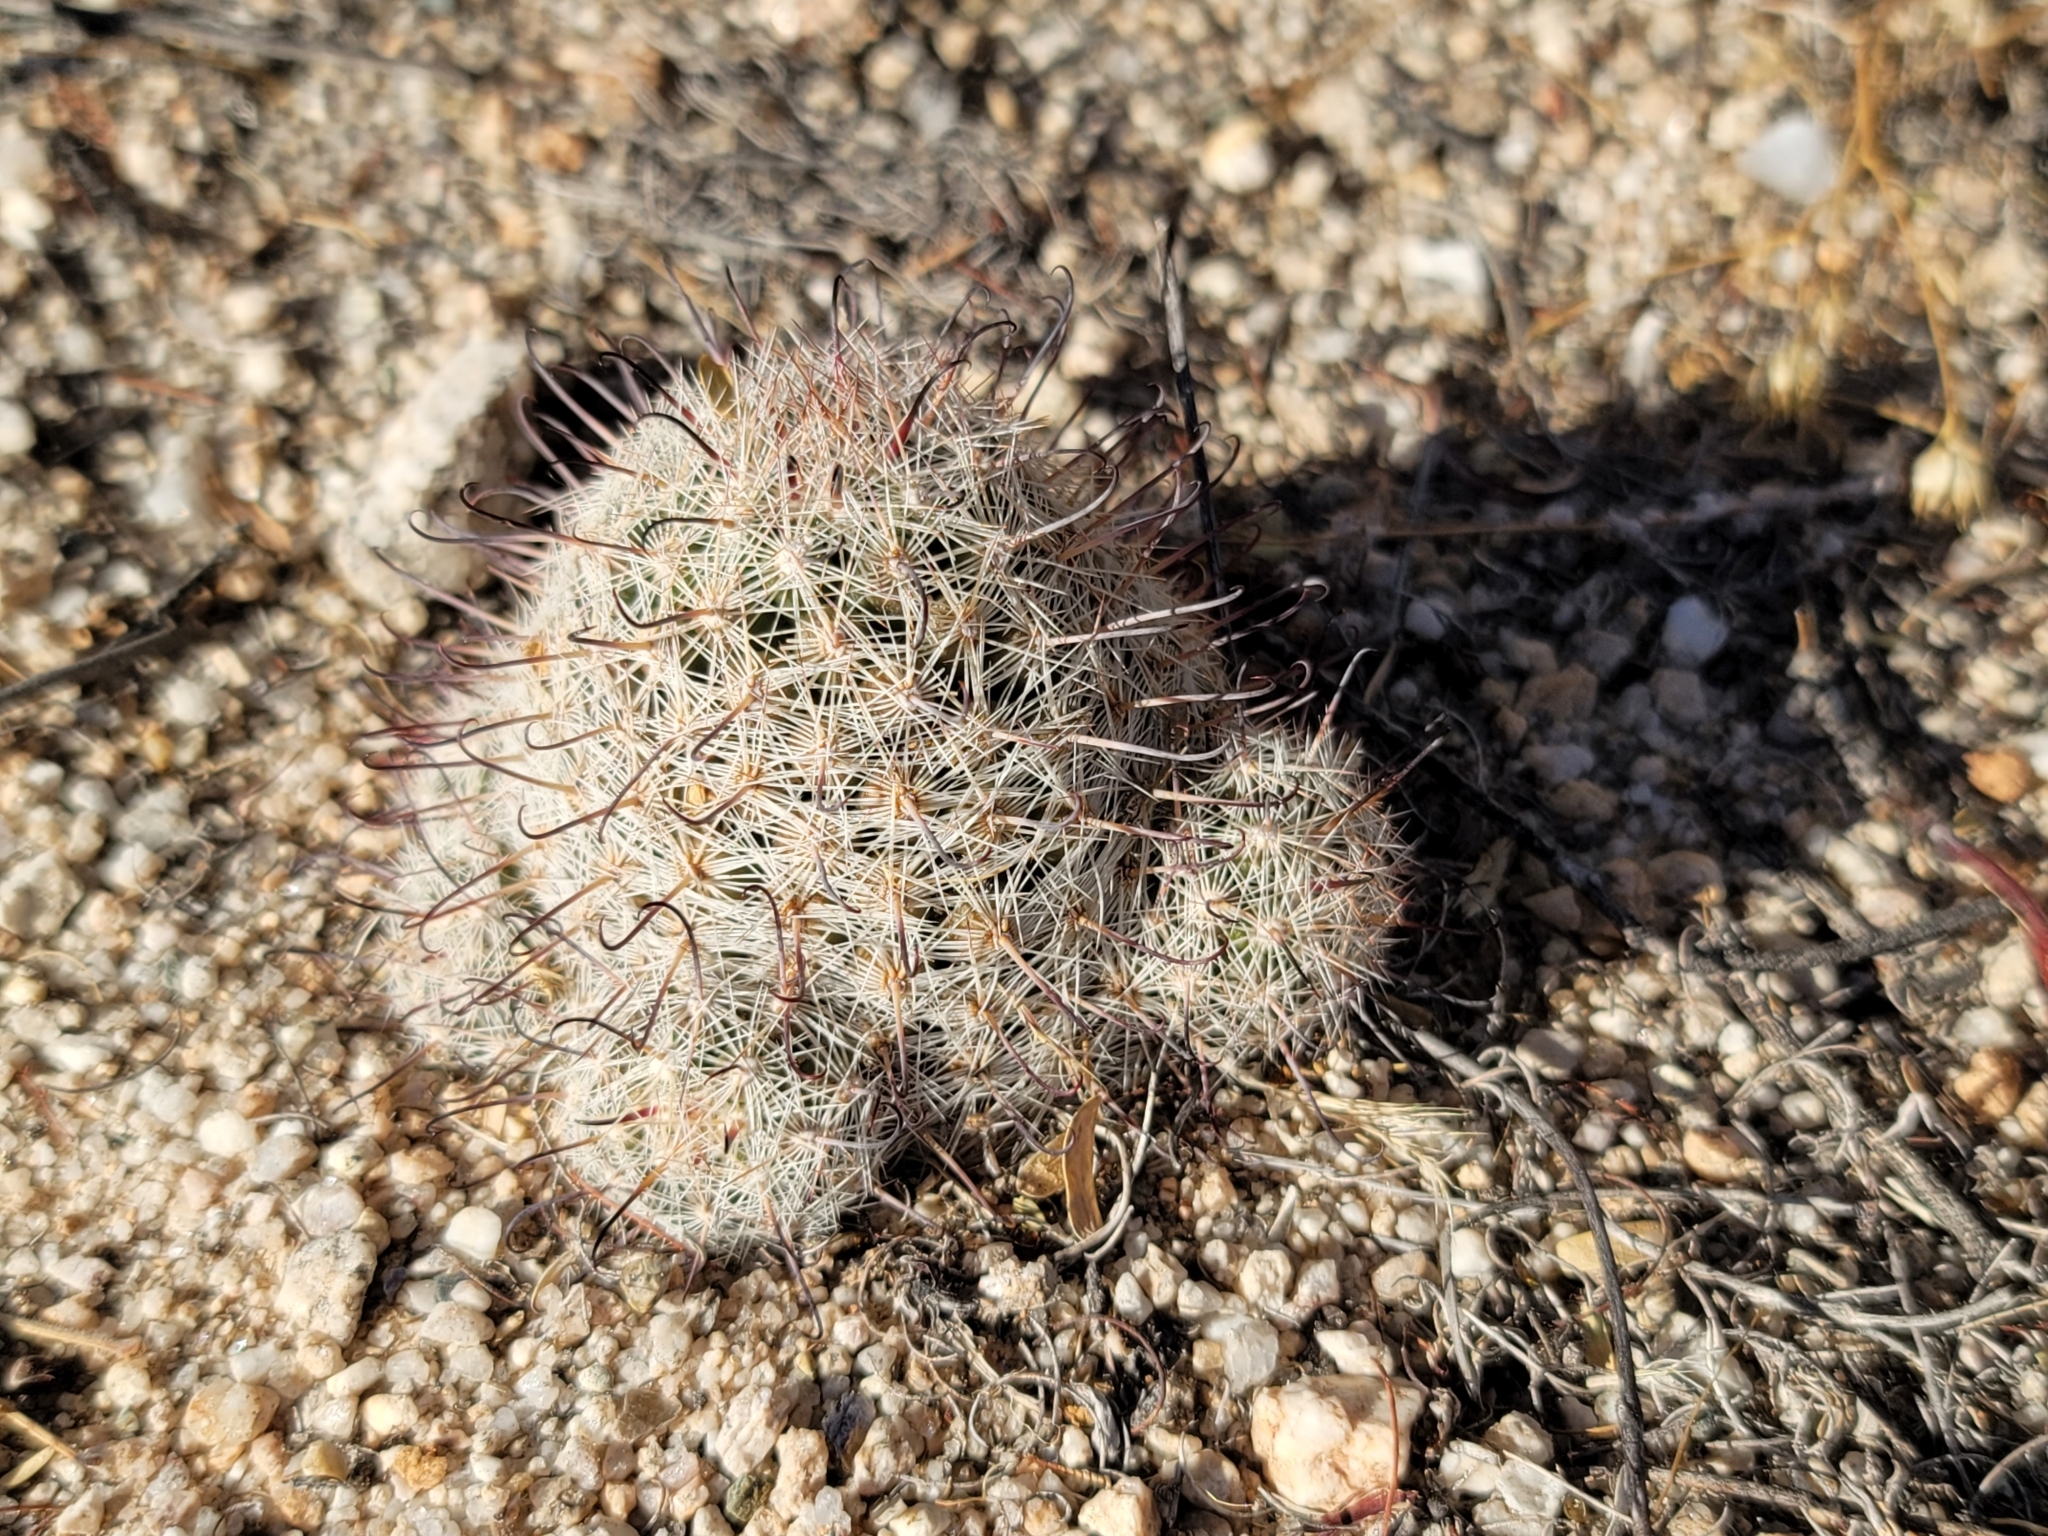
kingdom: Plantae
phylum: Tracheophyta
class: Magnoliopsida
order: Caryophyllales
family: Cactaceae
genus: Cochemiea
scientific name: Cochemiea grahamii
